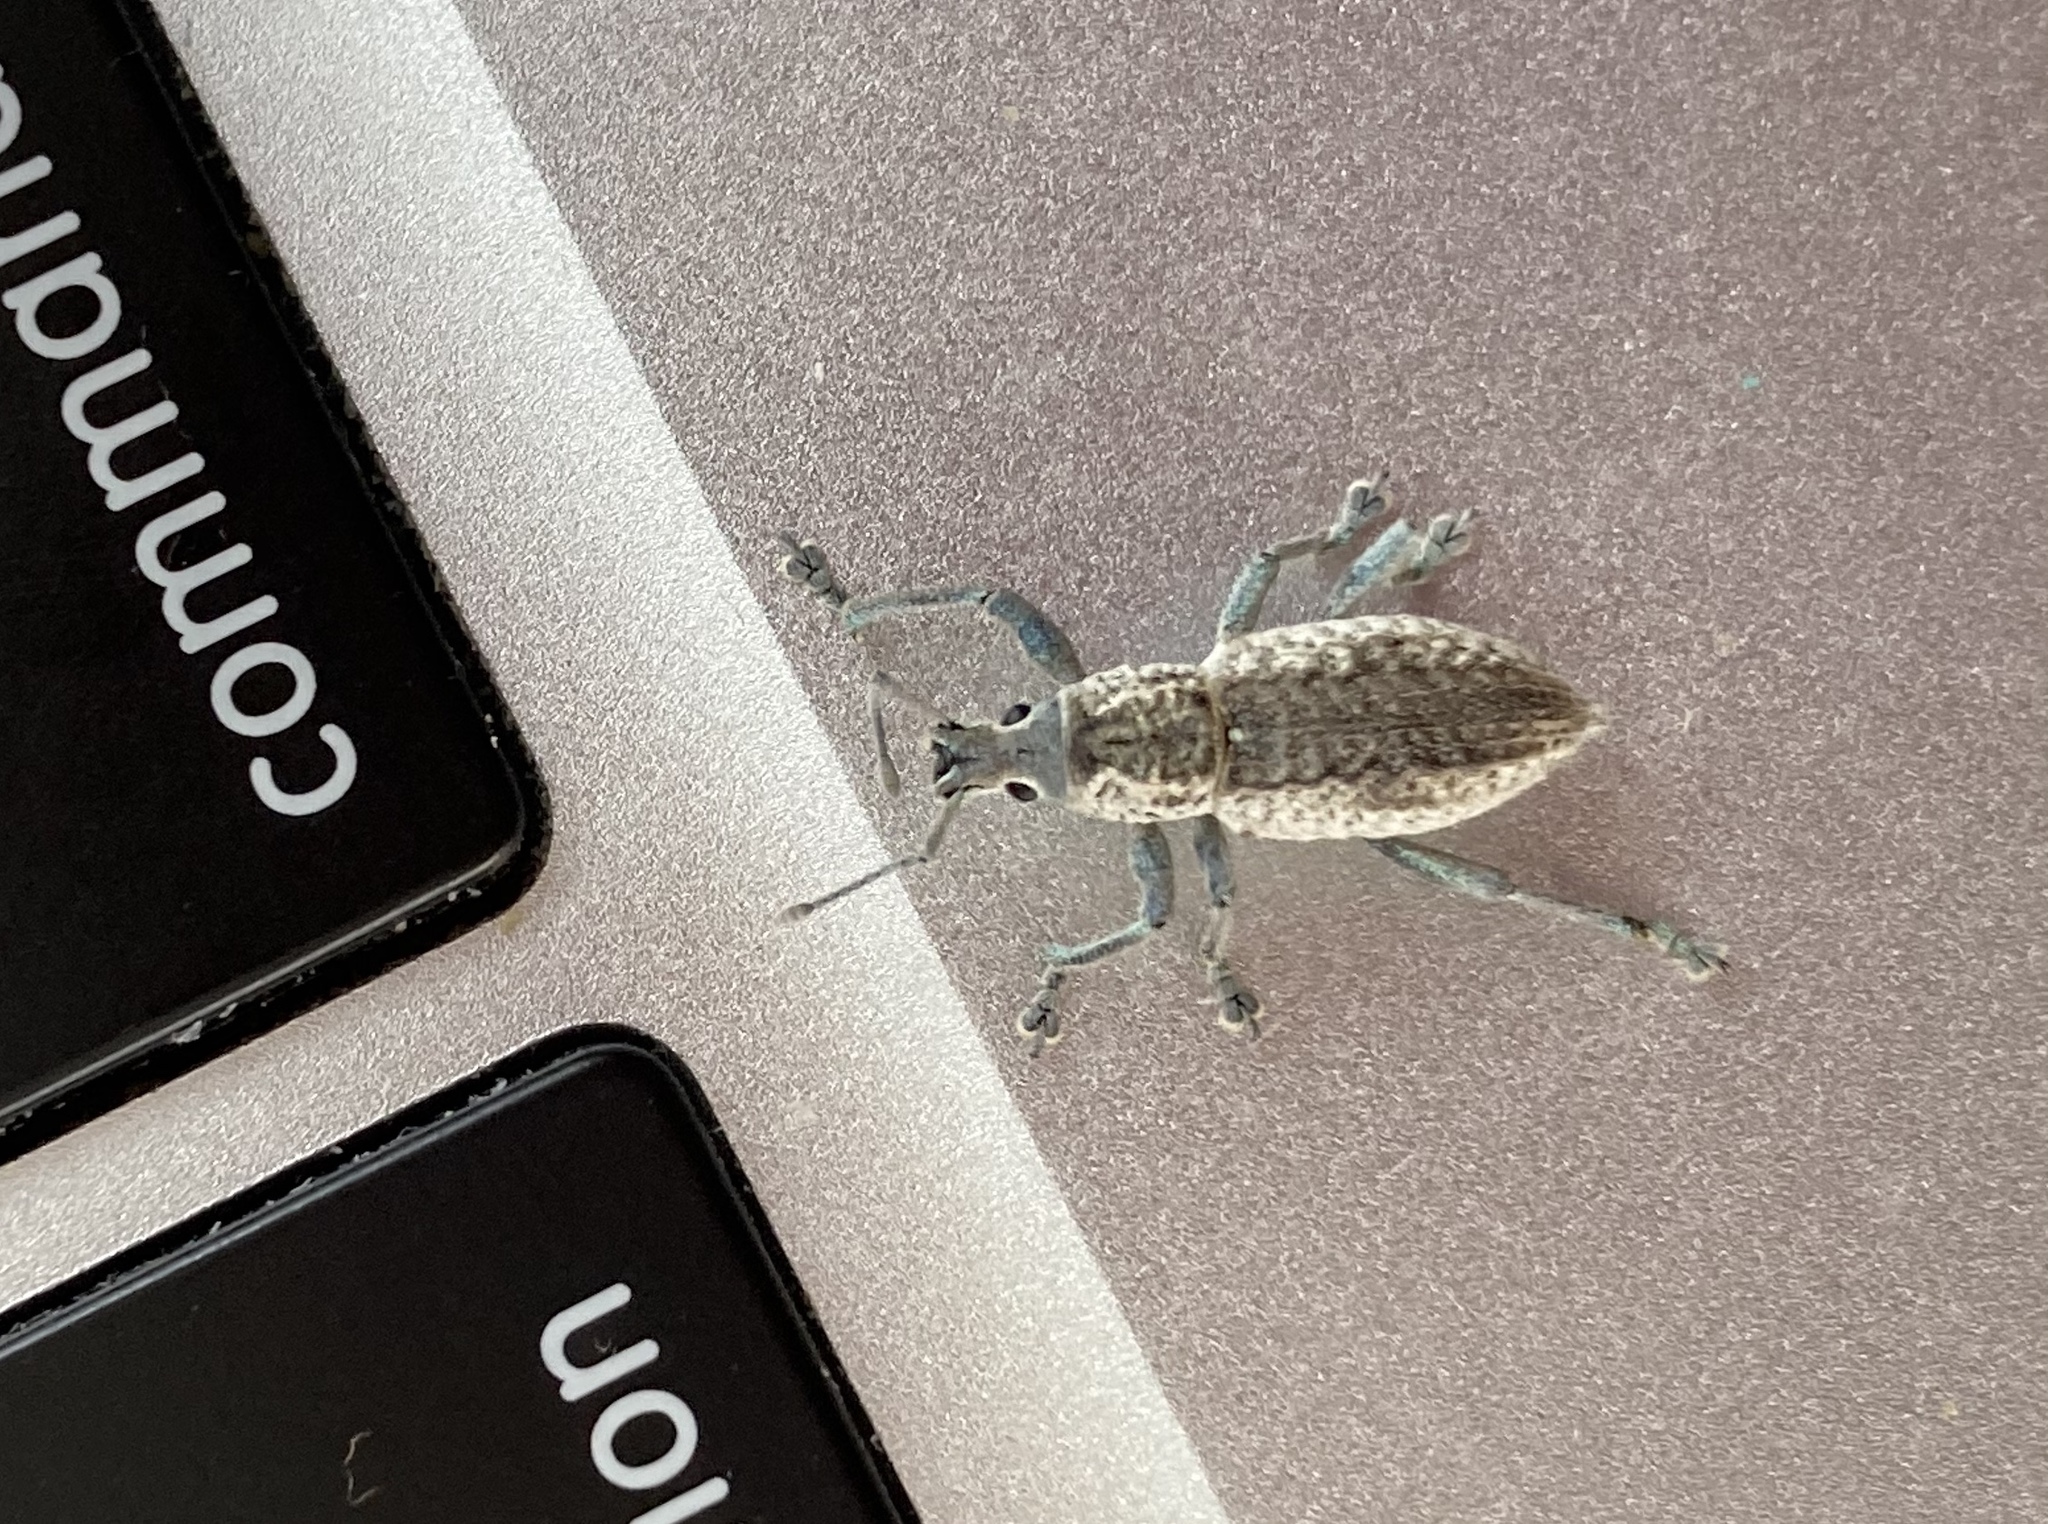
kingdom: Animalia
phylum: Arthropoda
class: Insecta
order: Coleoptera
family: Curculionidae
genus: Compsus
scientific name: Compsus canescens
